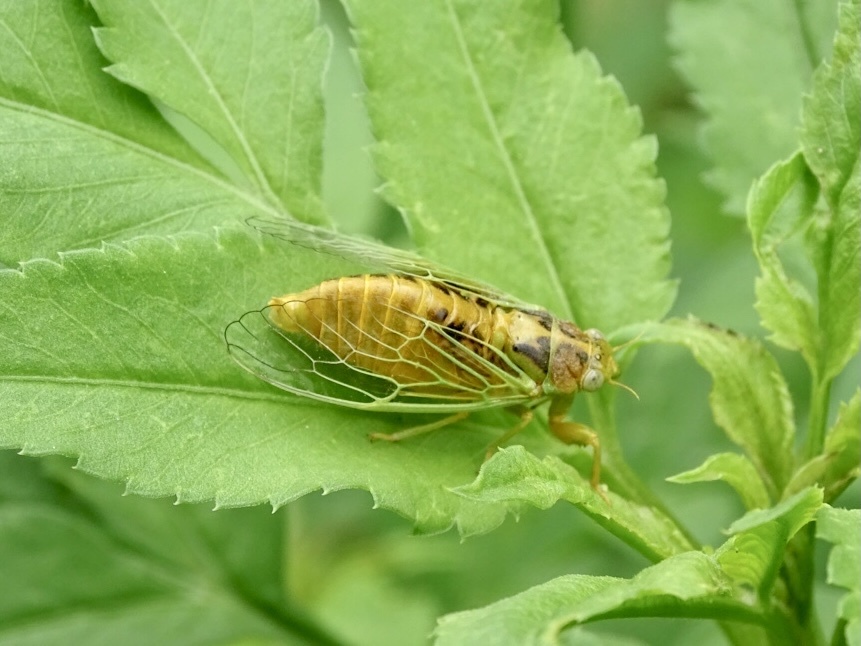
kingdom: Animalia
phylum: Arthropoda
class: Insecta
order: Hemiptera
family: Cicadidae
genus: Mogannia
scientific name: Mogannia hebes
